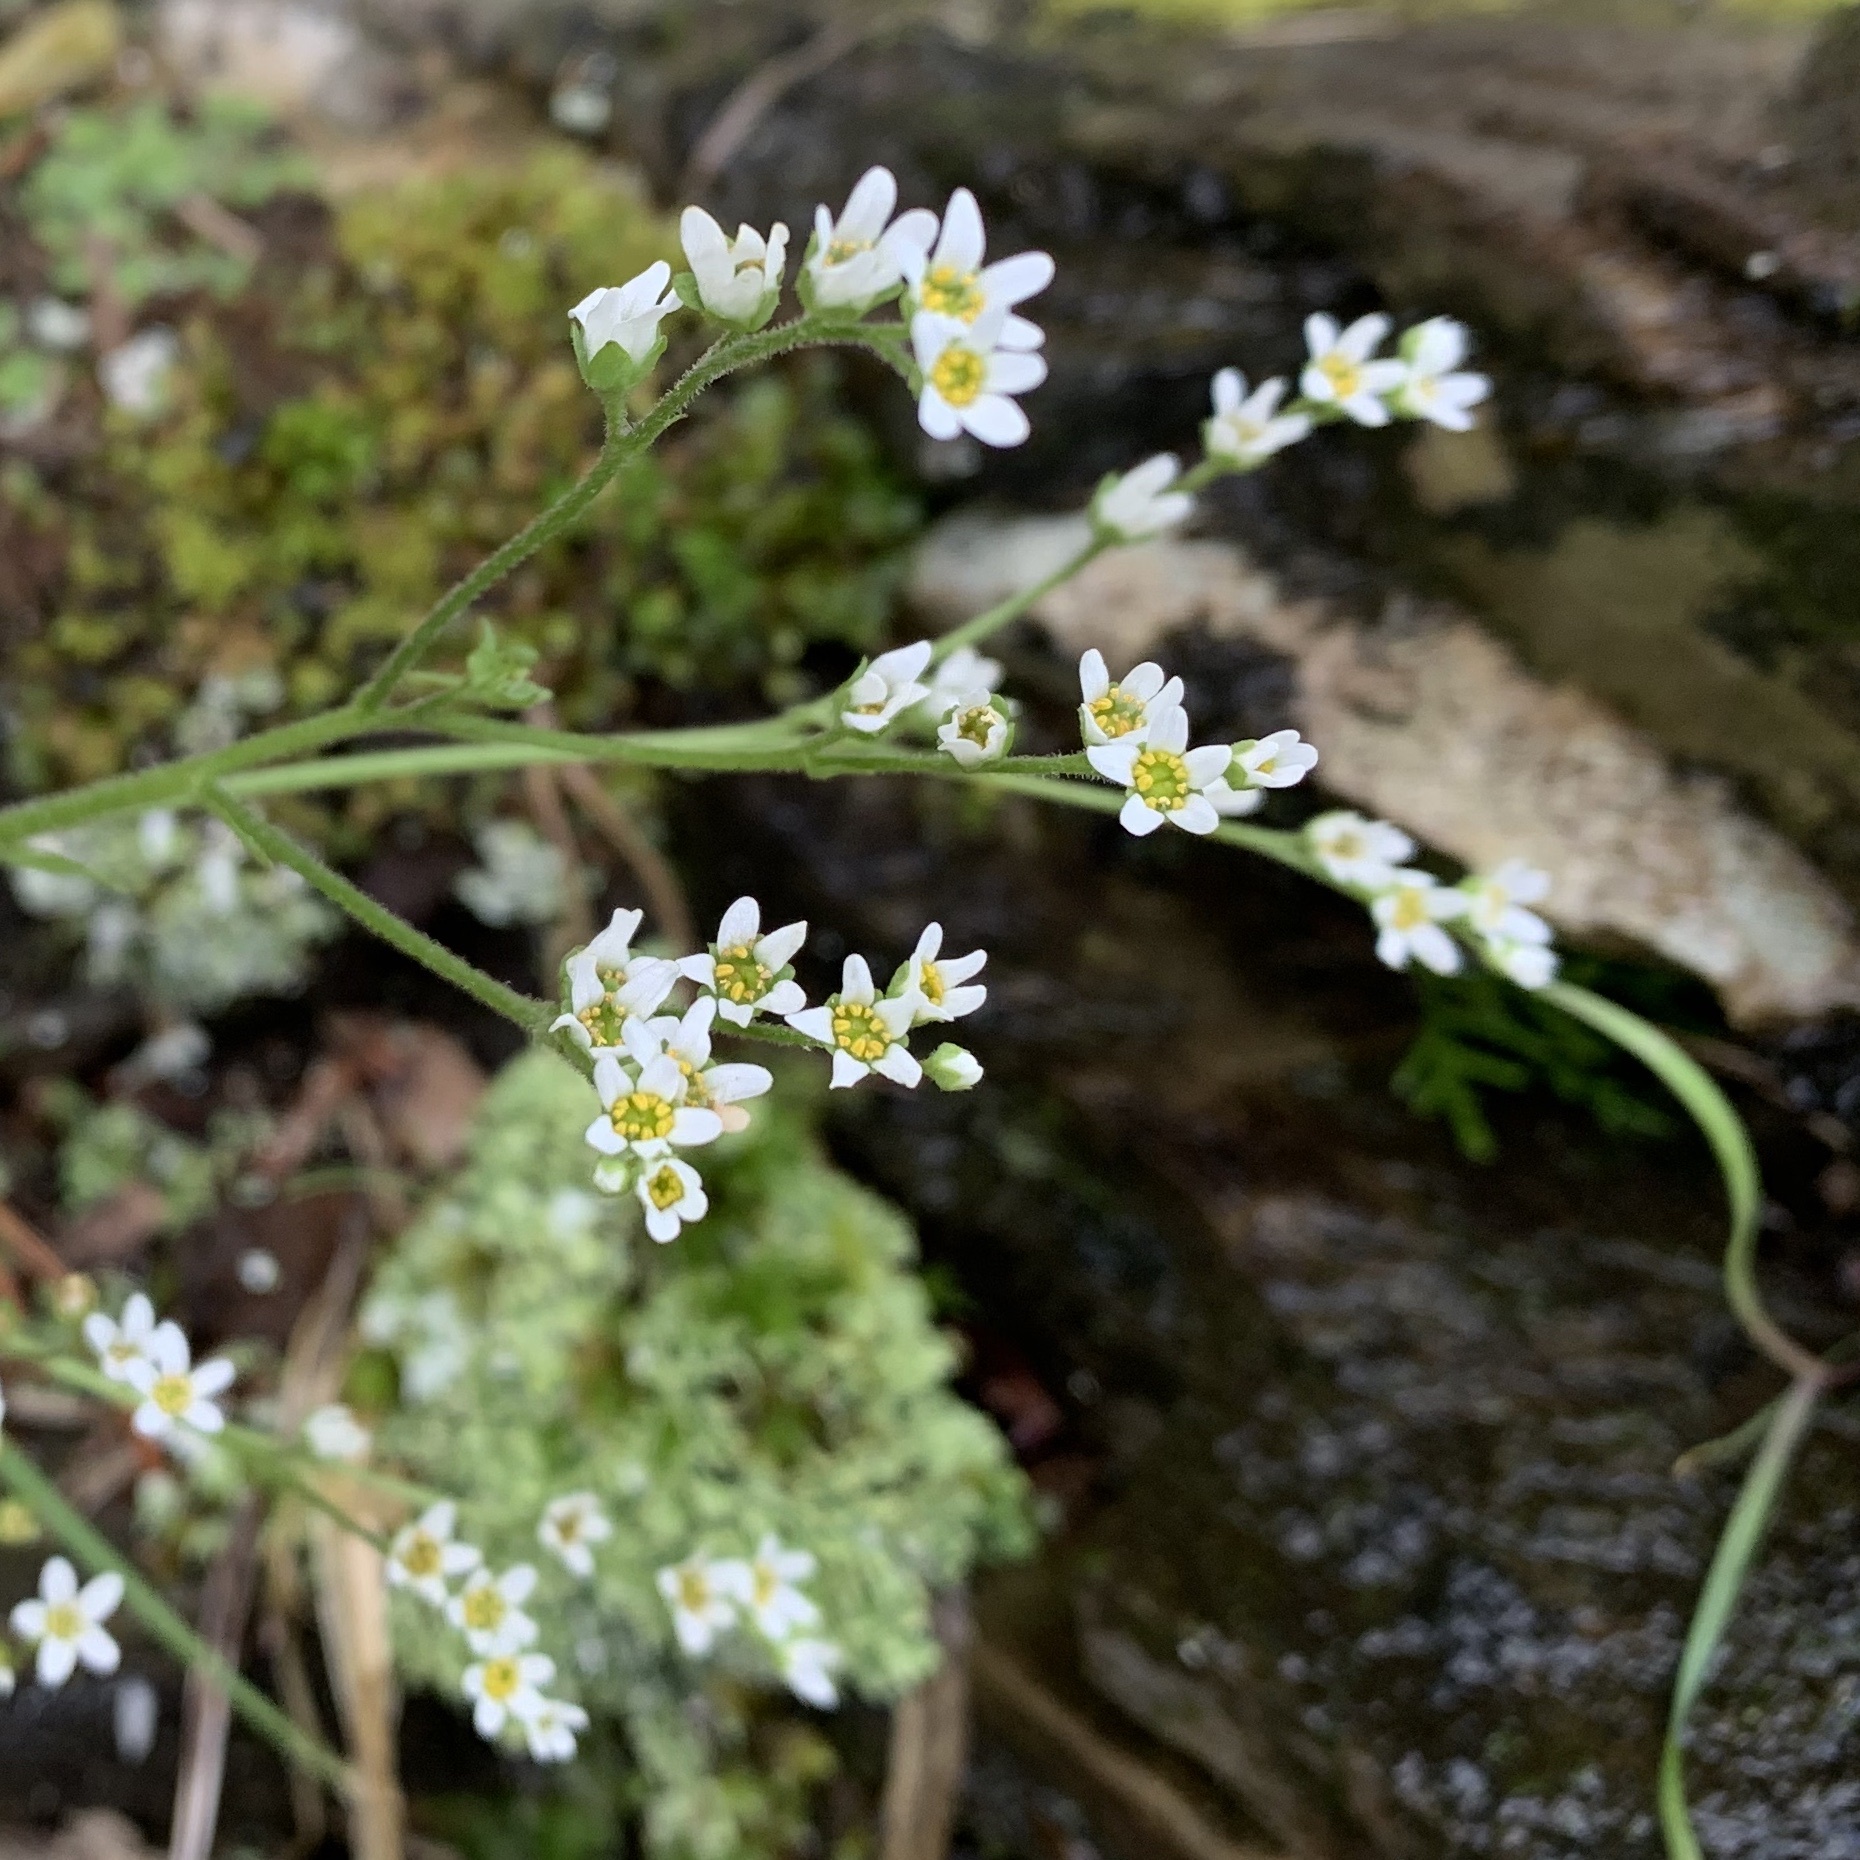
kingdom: Plantae
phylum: Tracheophyta
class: Magnoliopsida
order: Saxifragales
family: Saxifragaceae
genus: Micranthes
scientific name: Micranthes virginiensis
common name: Early saxifrage
